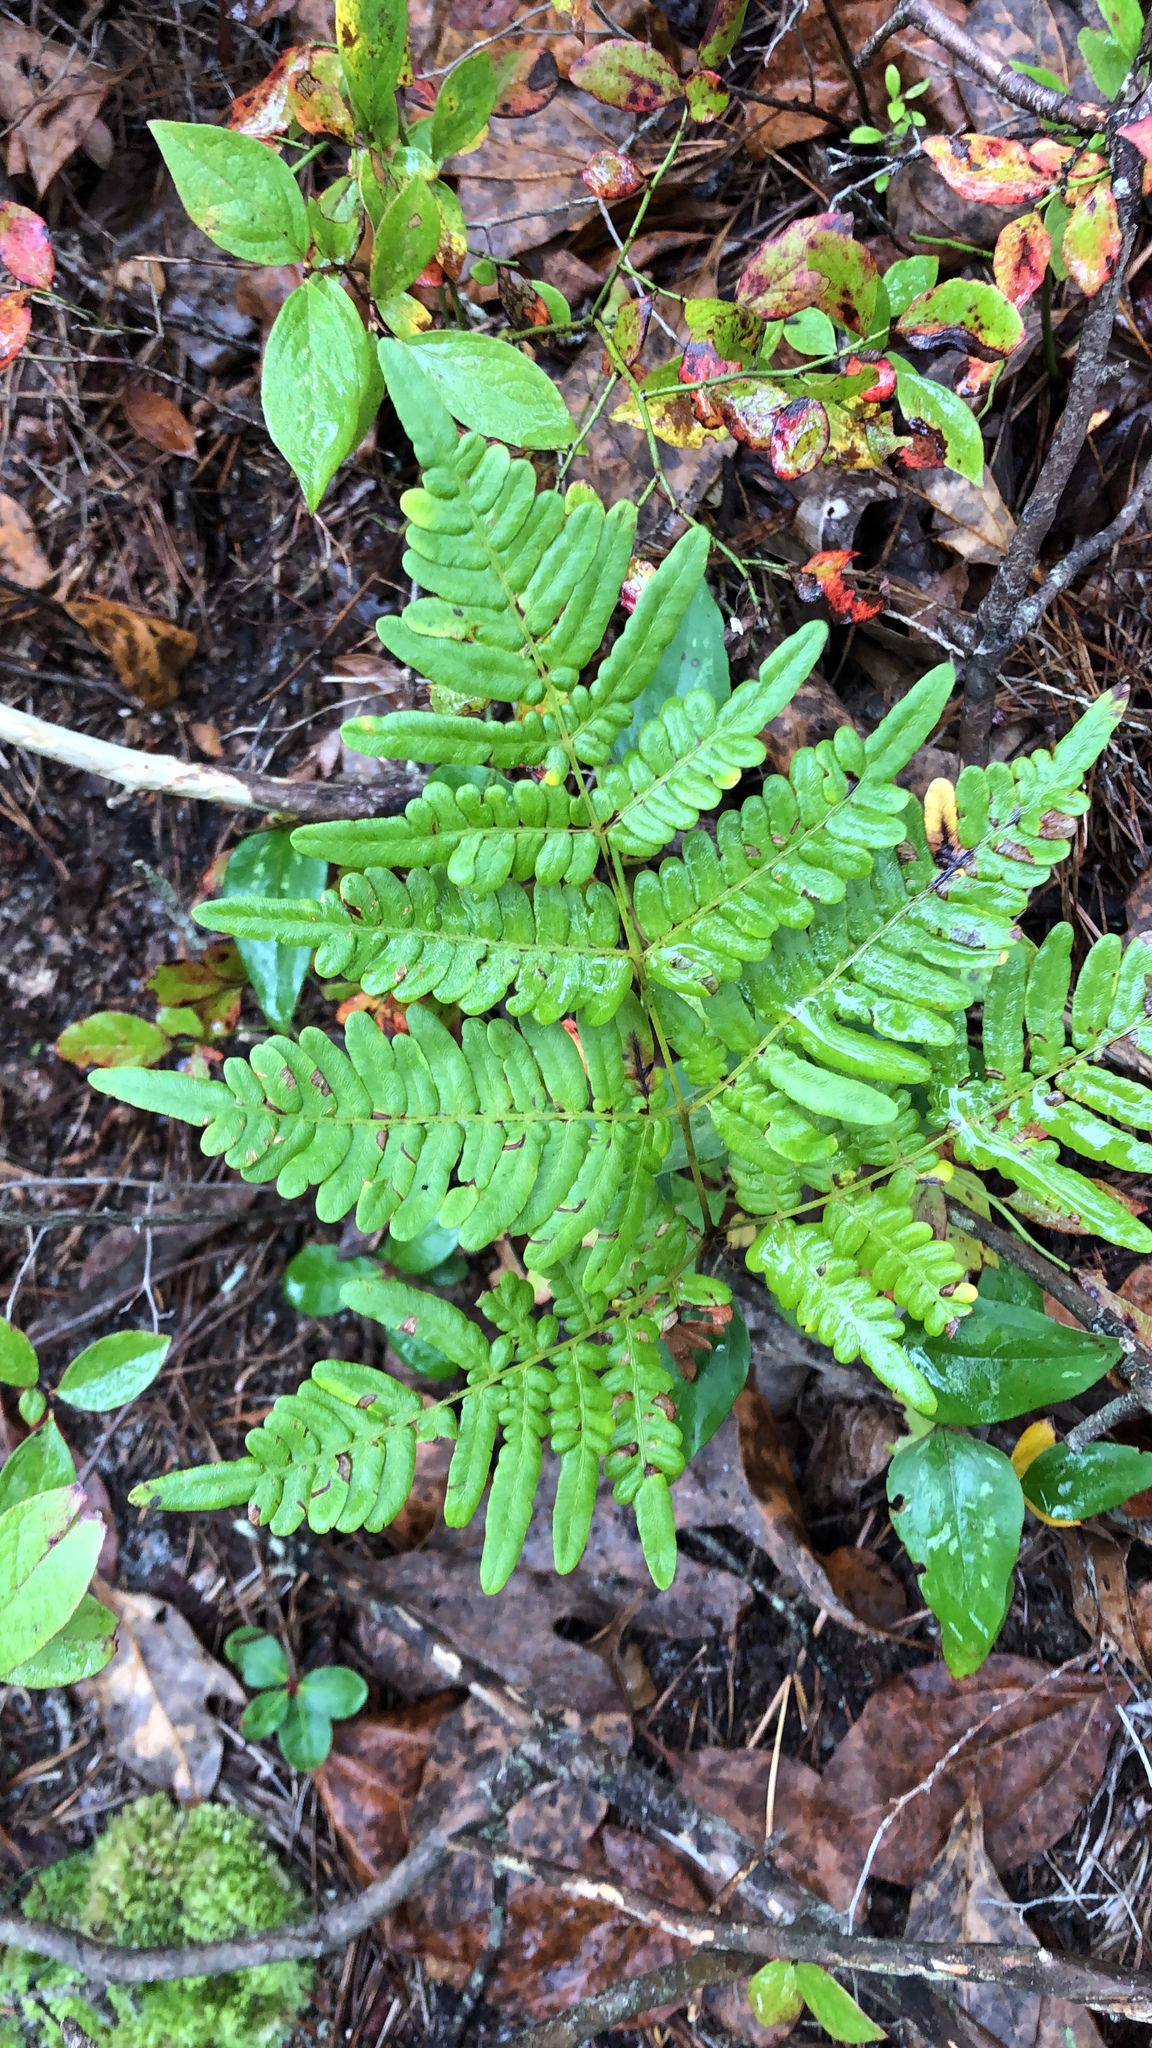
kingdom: Plantae
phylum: Tracheophyta
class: Polypodiopsida
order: Polypodiales
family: Dennstaedtiaceae
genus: Pteridium
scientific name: Pteridium aquilinum
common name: Bracken
